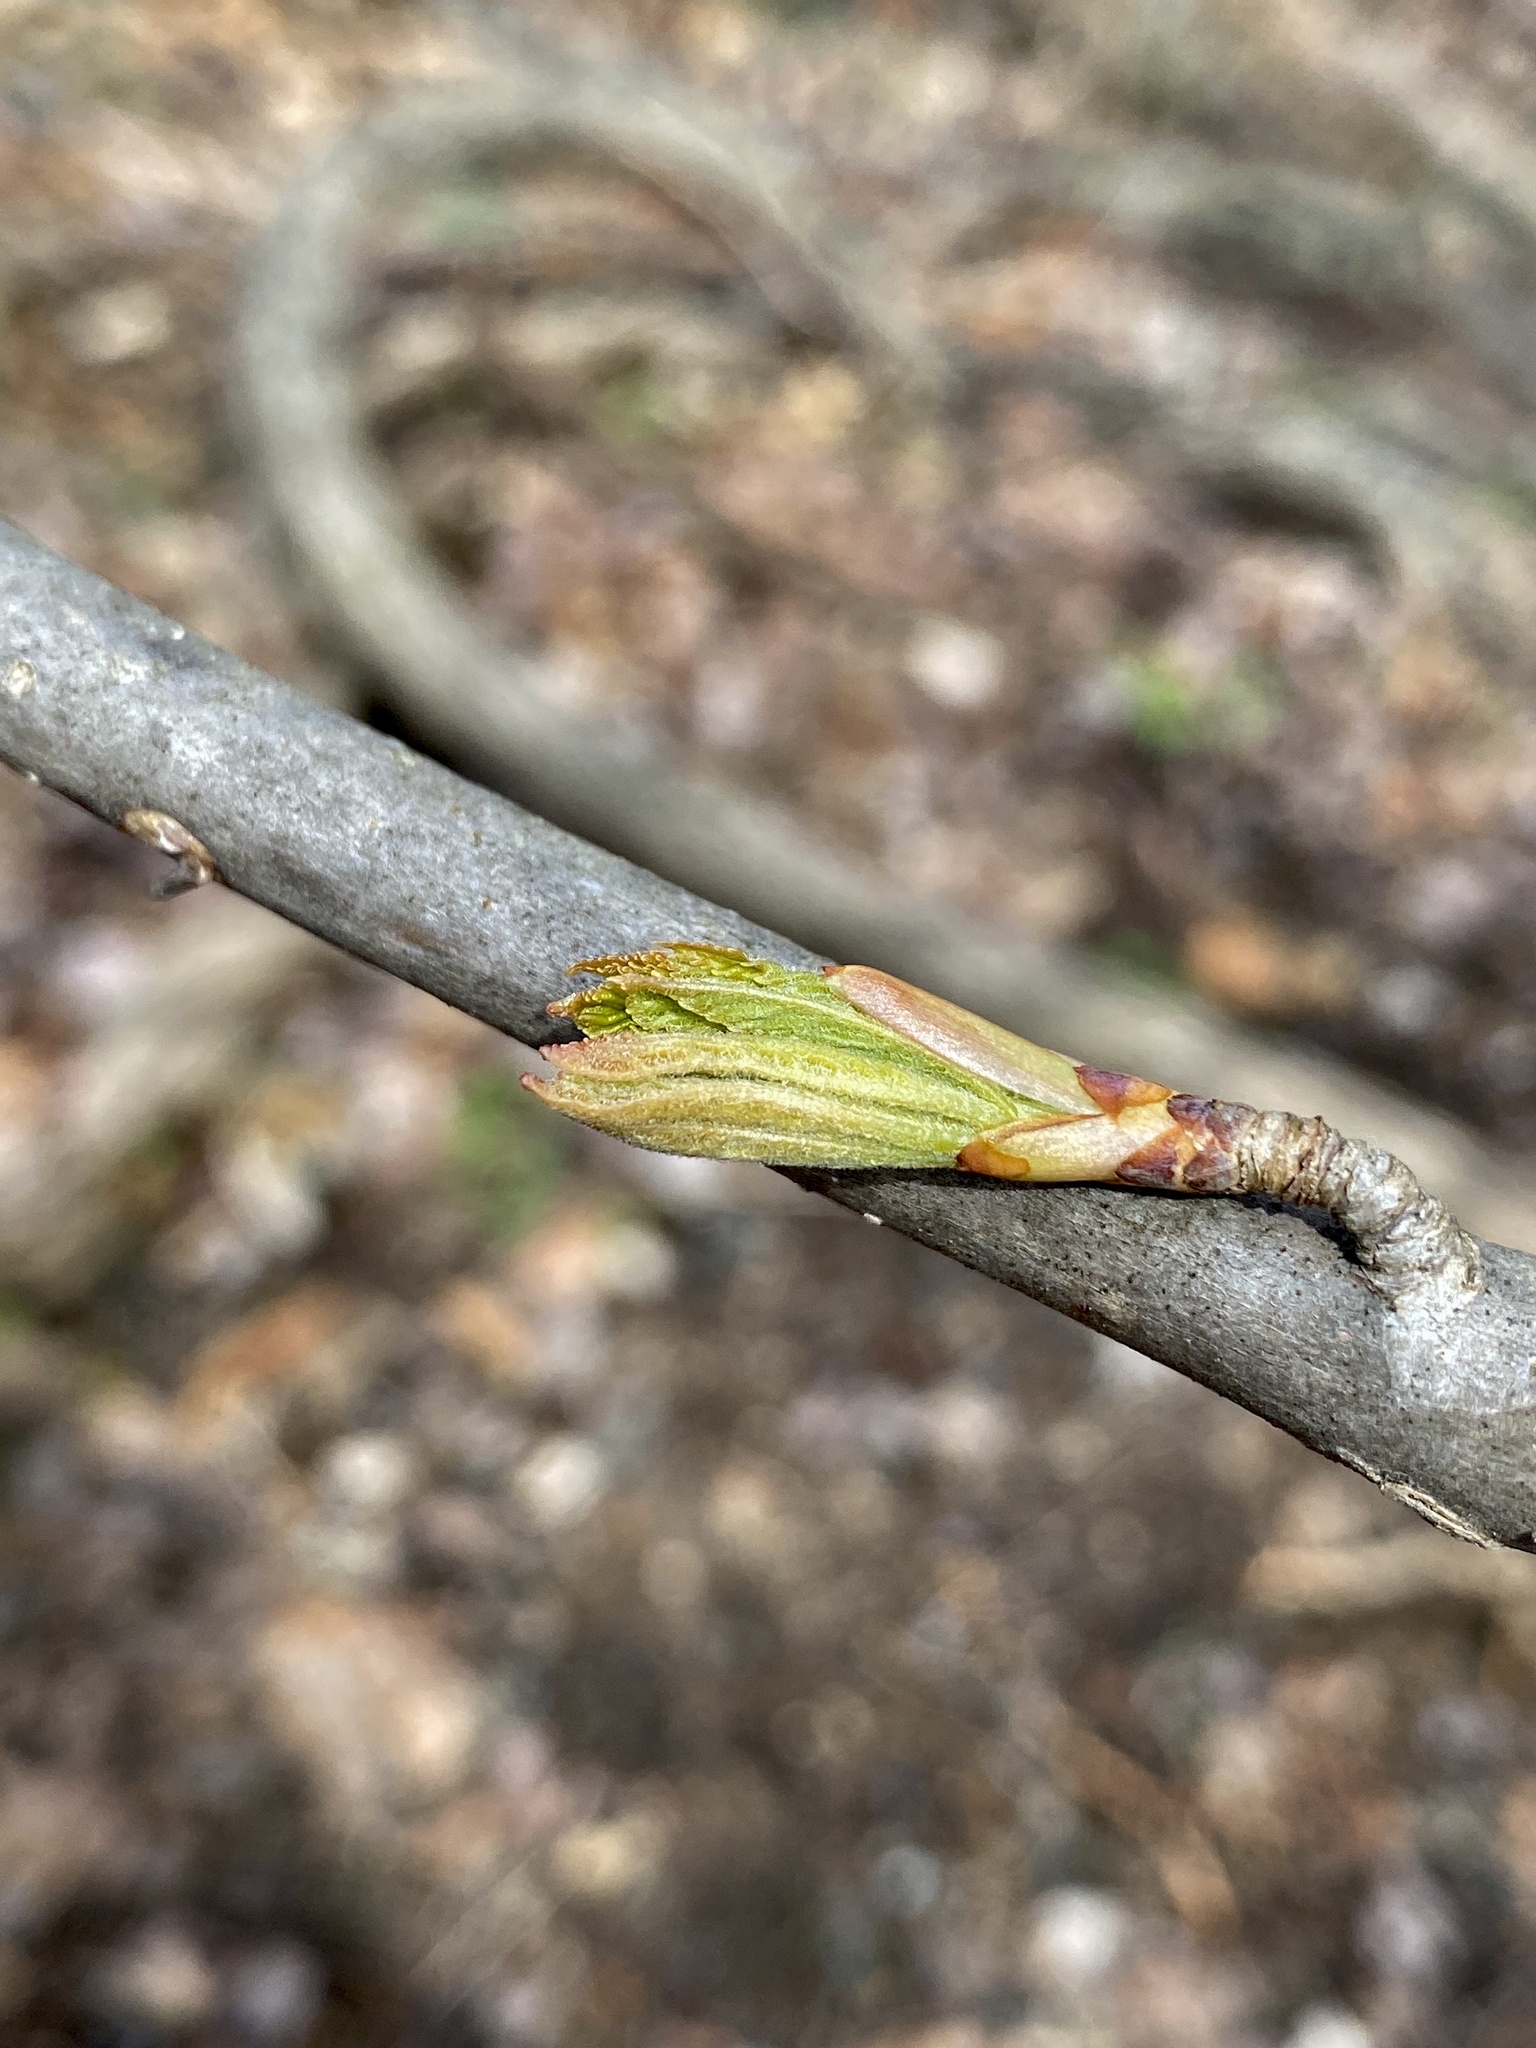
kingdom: Plantae
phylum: Tracheophyta
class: Magnoliopsida
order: Sapindales
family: Sapindaceae
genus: Aesculus
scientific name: Aesculus flava
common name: Yellow buckeye
